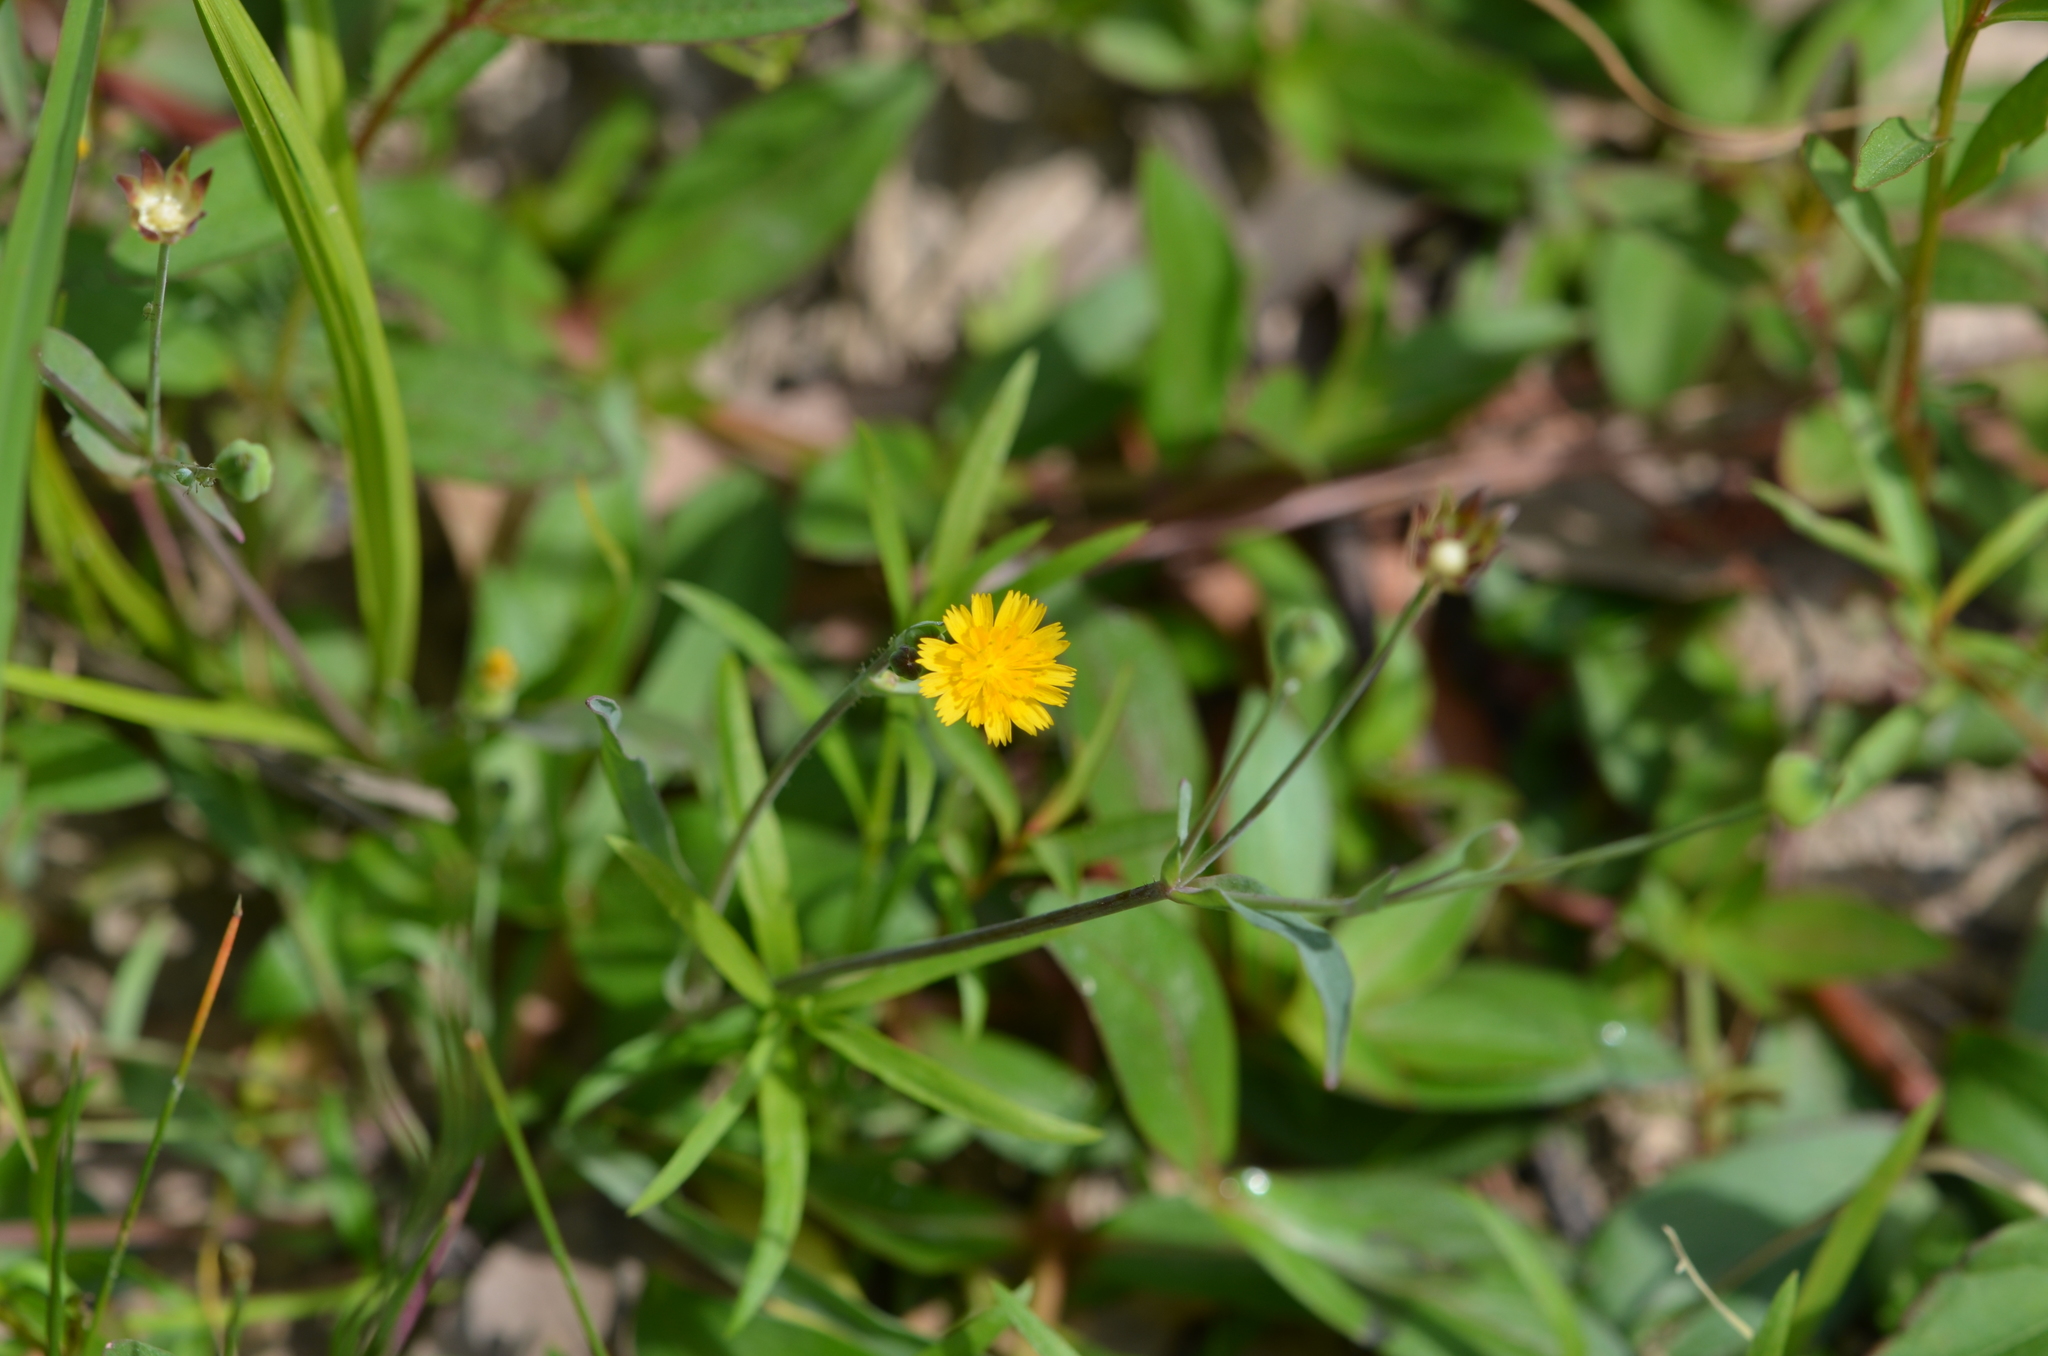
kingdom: Plantae
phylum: Tracheophyta
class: Magnoliopsida
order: Asterales
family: Asteraceae
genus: Krigia
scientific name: Krigia cespitosa
